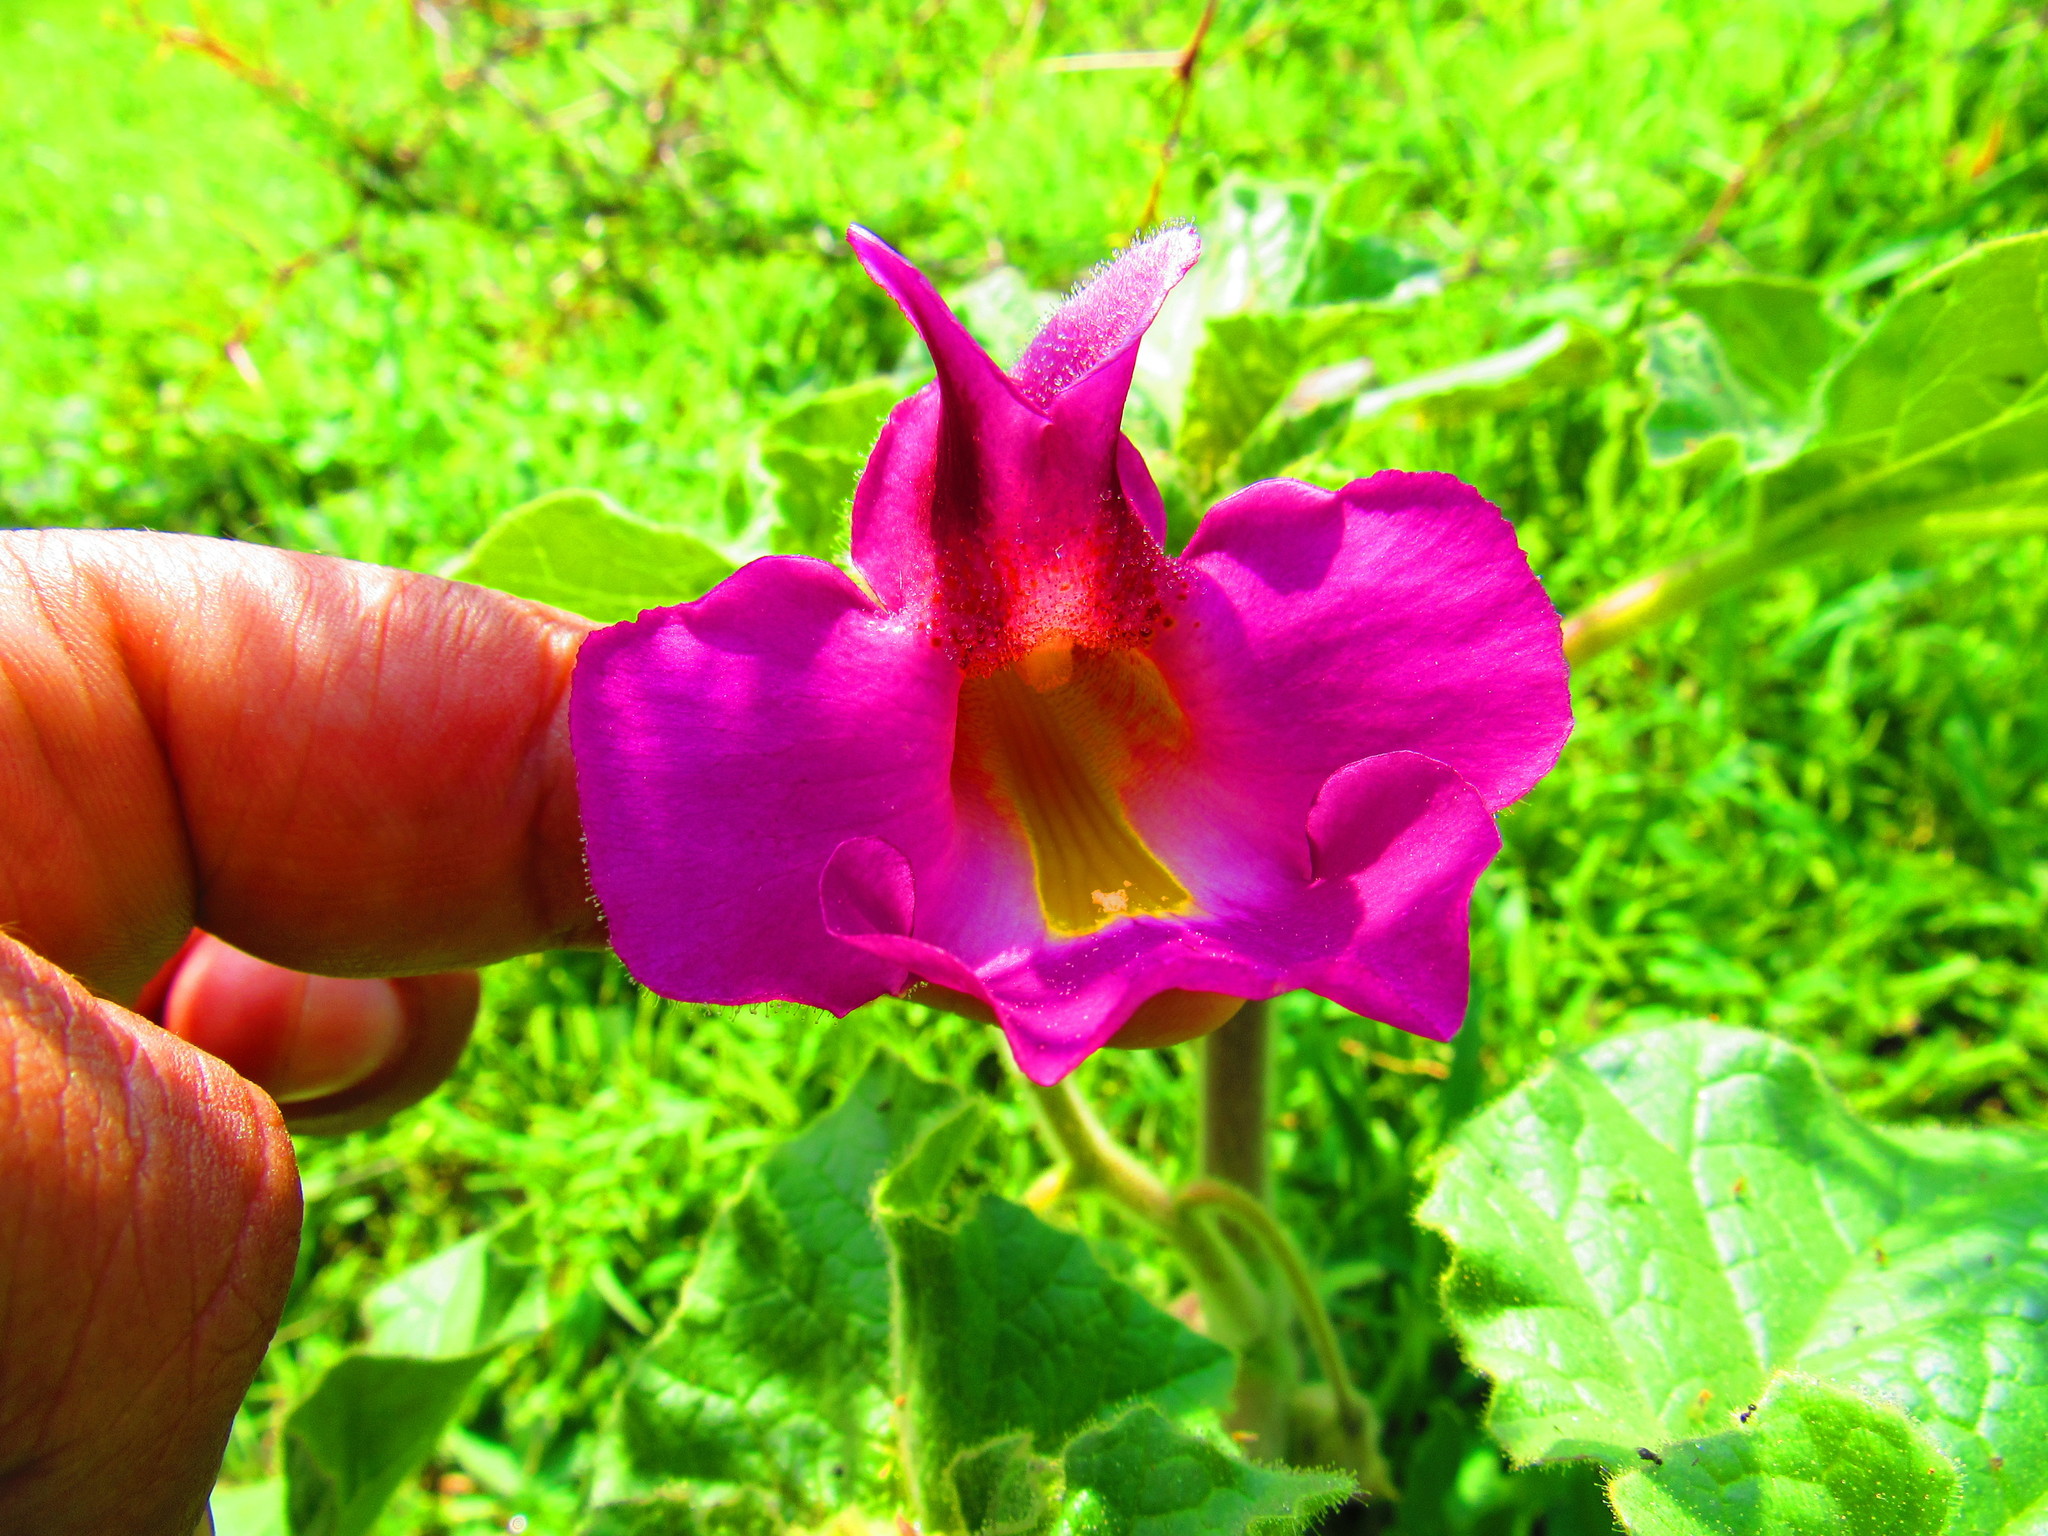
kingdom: Plantae
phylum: Tracheophyta
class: Magnoliopsida
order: Lamiales
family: Martyniaceae
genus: Proboscidea
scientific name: Proboscidea louisianica
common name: Elephant tusks
